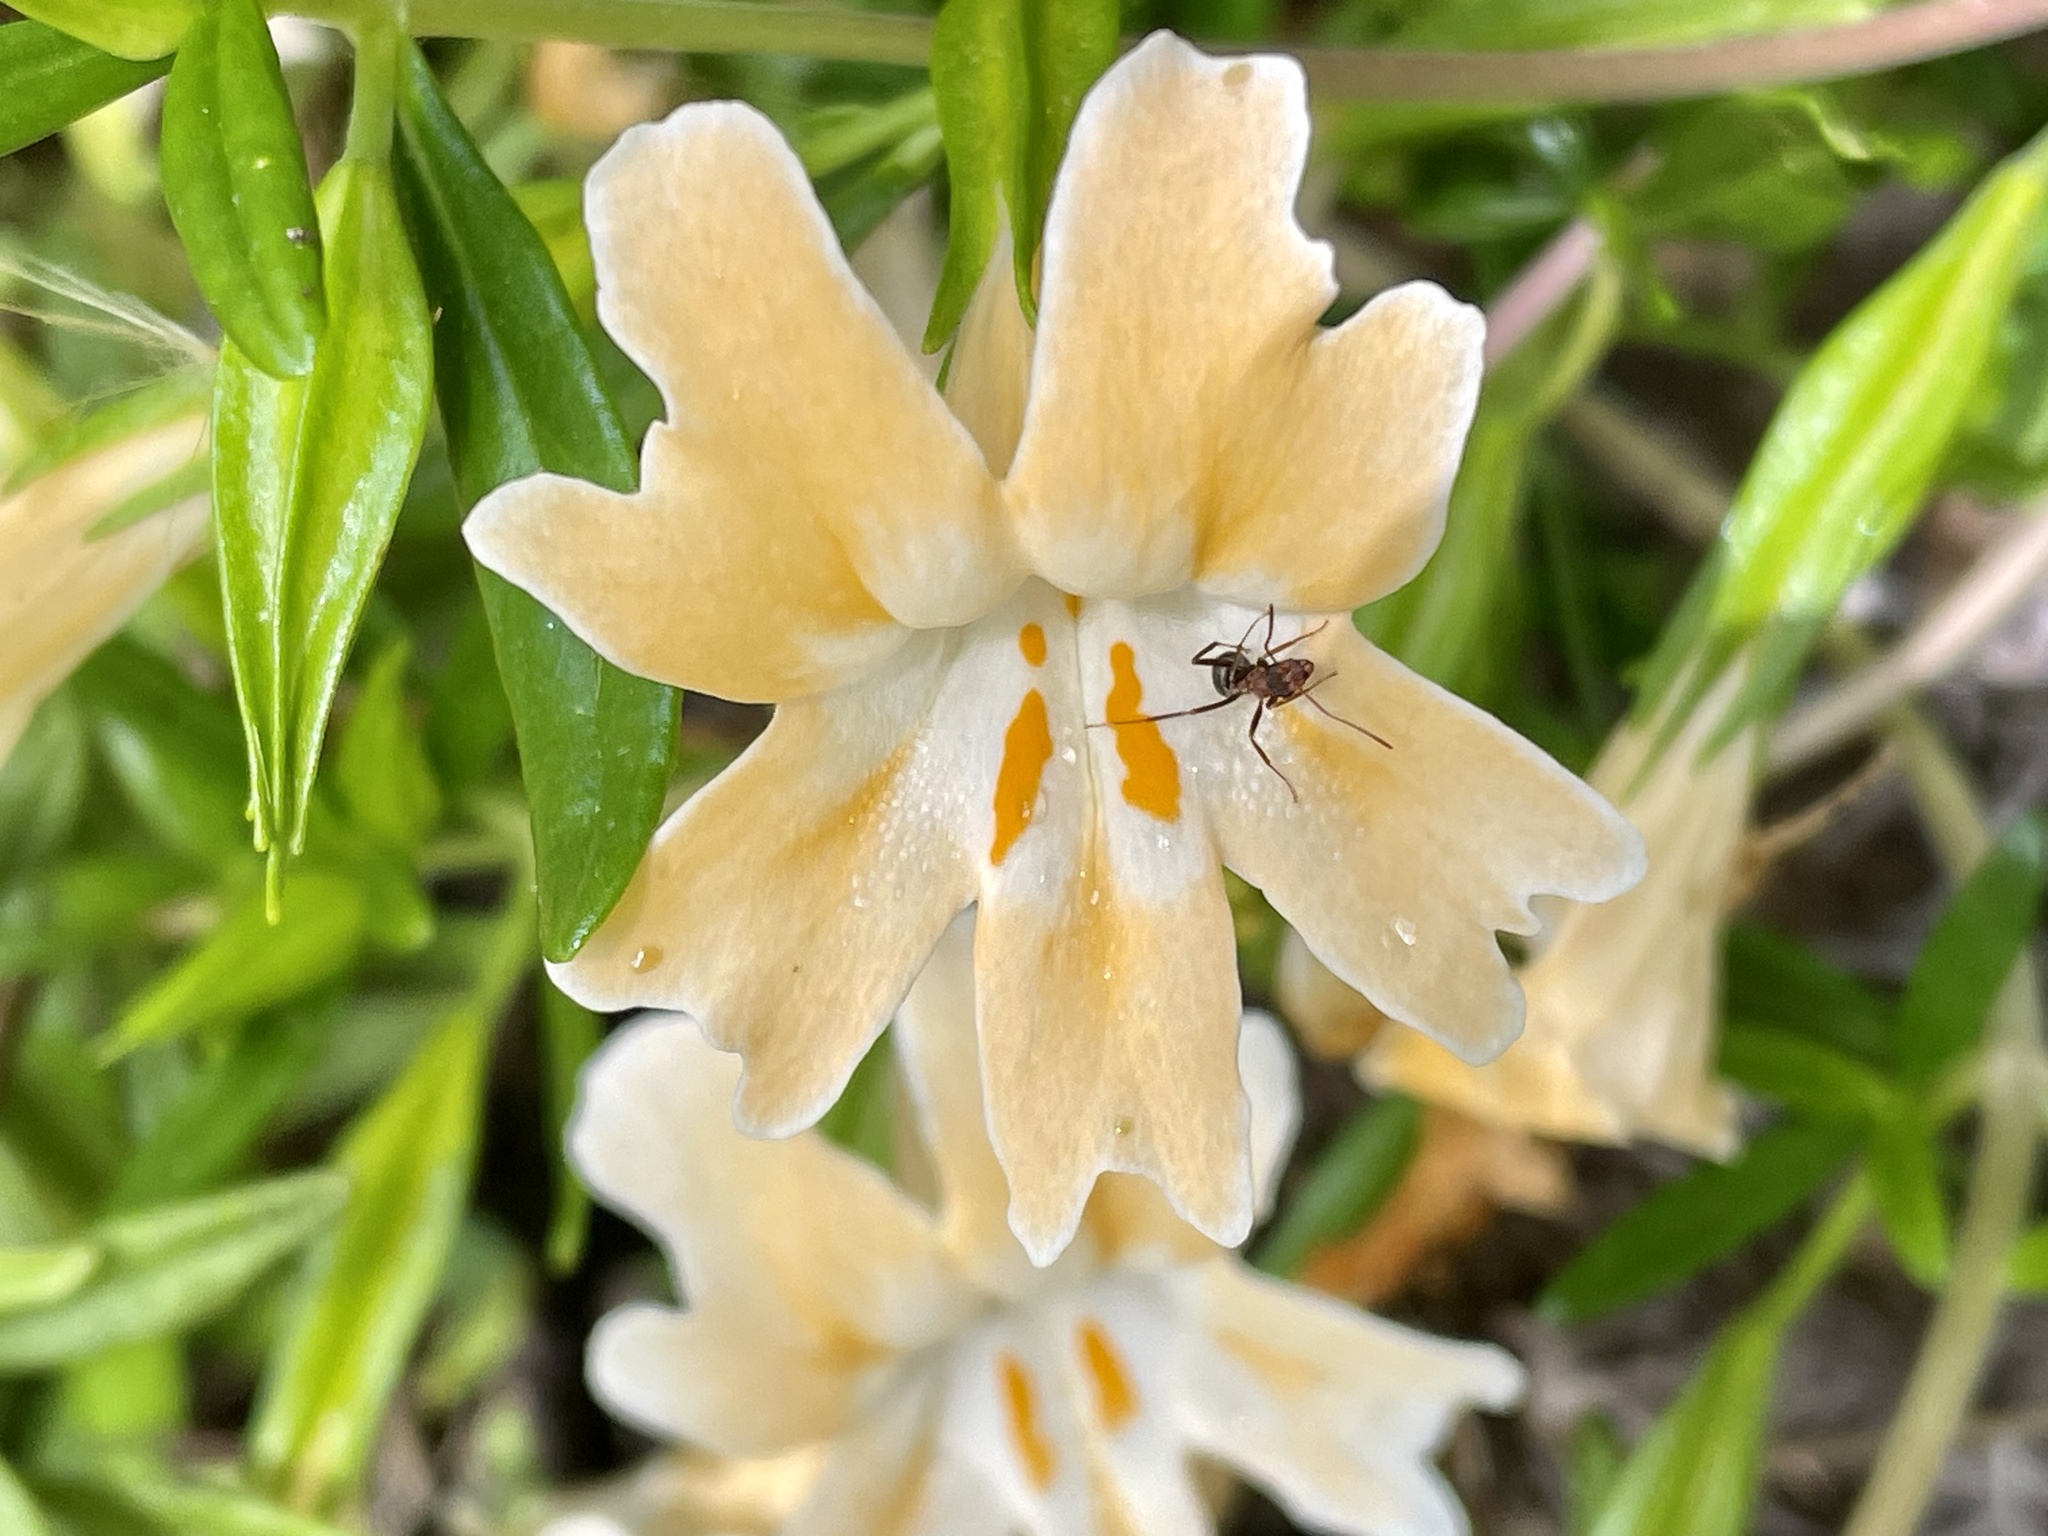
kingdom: Plantae
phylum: Tracheophyta
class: Magnoliopsida
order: Lamiales
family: Phrymaceae
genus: Diplacus
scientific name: Diplacus linearis
